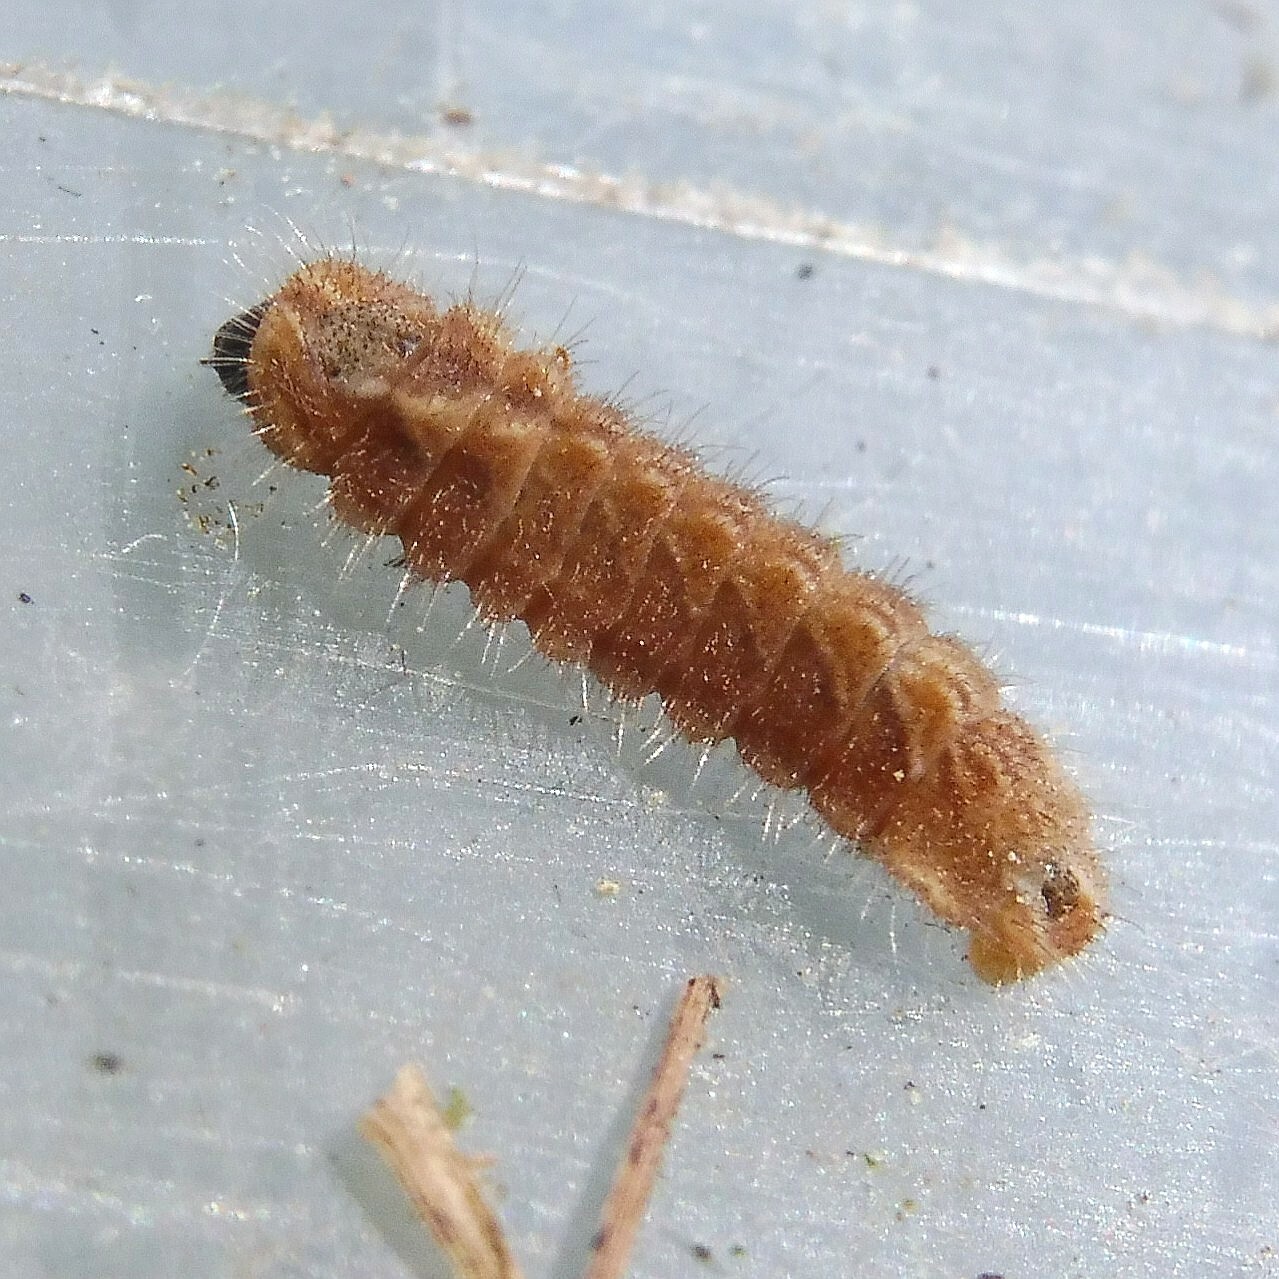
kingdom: Animalia
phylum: Arthropoda
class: Insecta
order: Lepidoptera
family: Lycaenidae
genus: Quercusia
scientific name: Quercusia quercus
